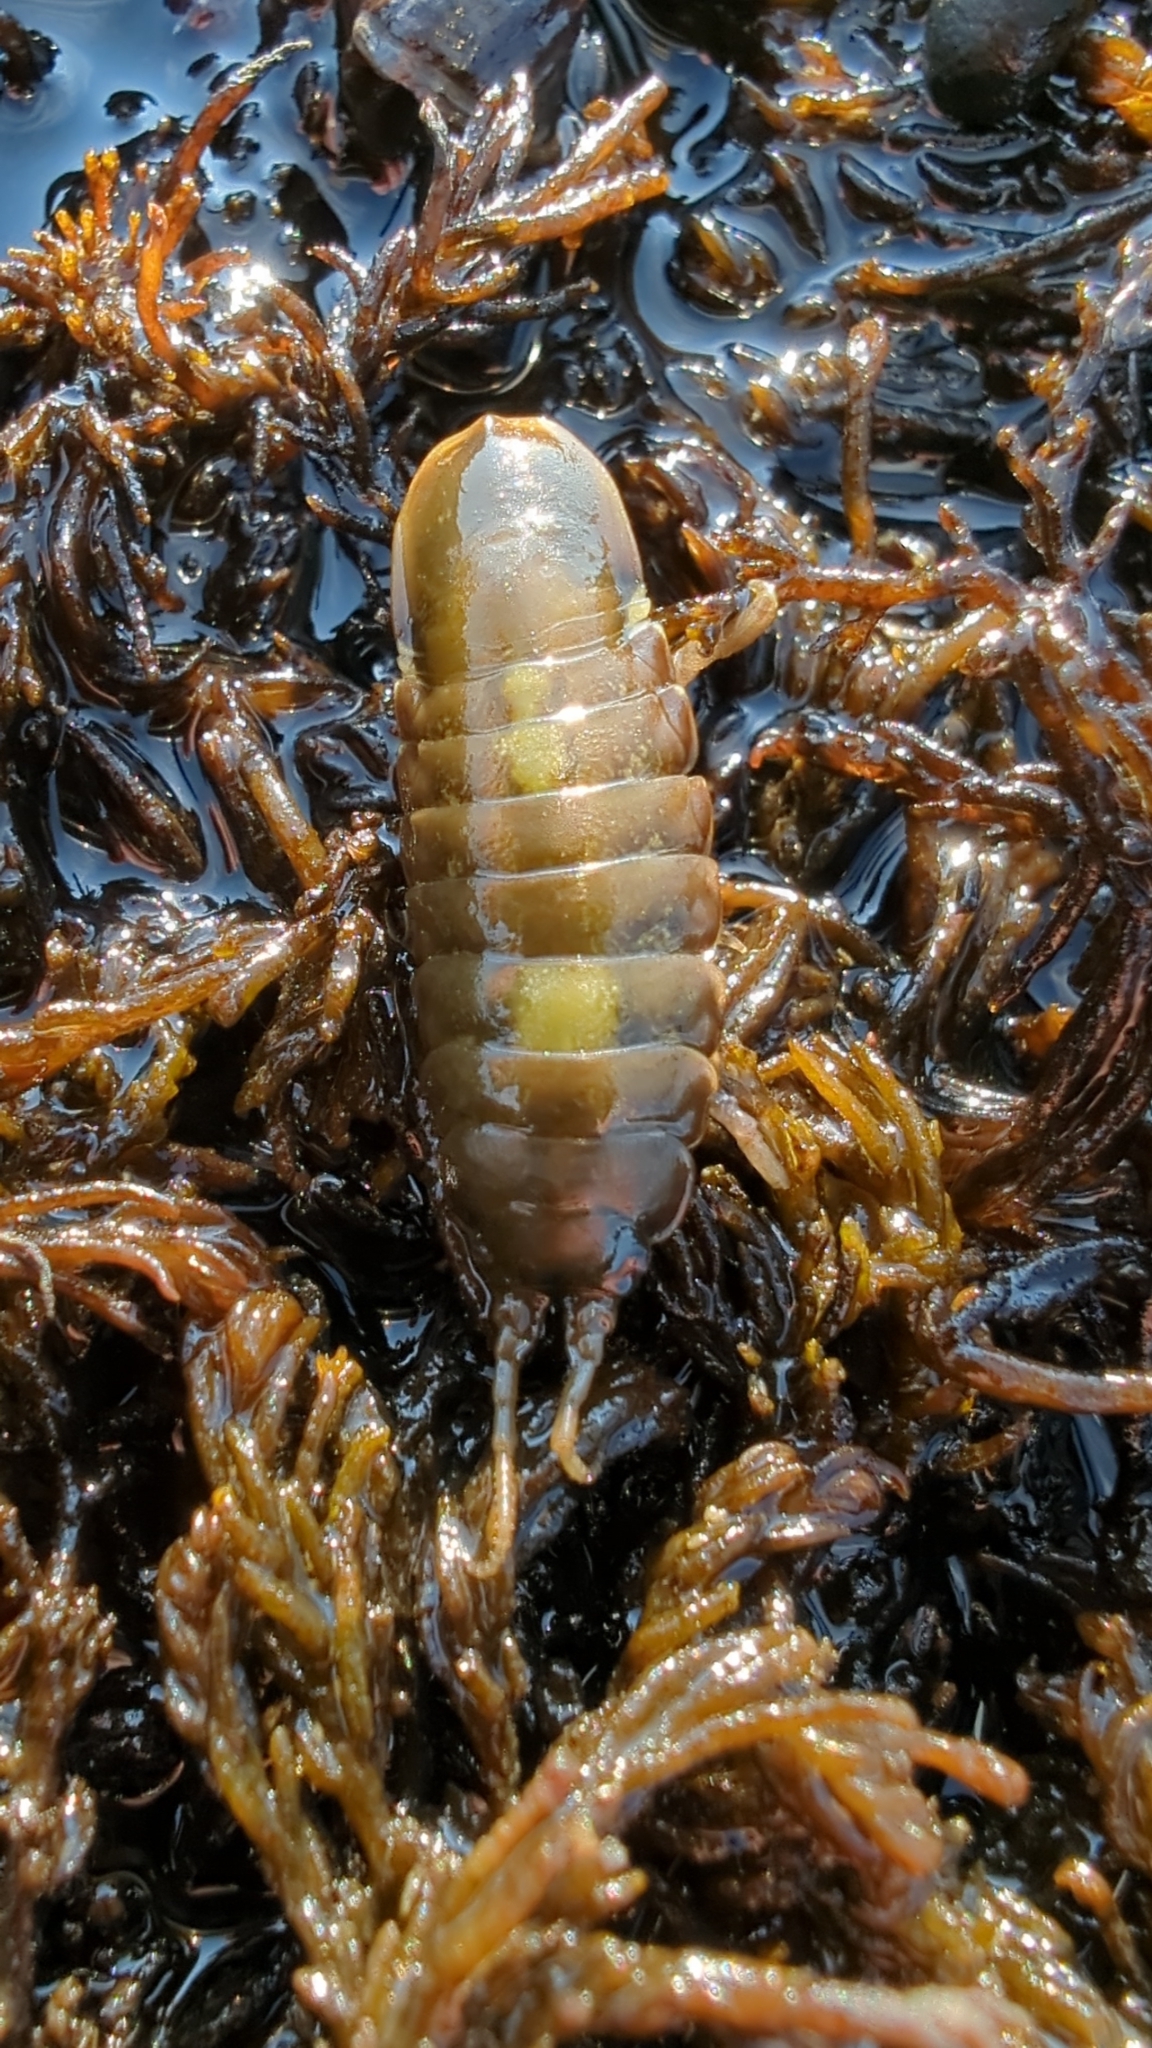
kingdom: Animalia
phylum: Arthropoda
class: Malacostraca
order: Isopoda
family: Idoteidae
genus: Pentidotea
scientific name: Pentidotea wosnesenskii
